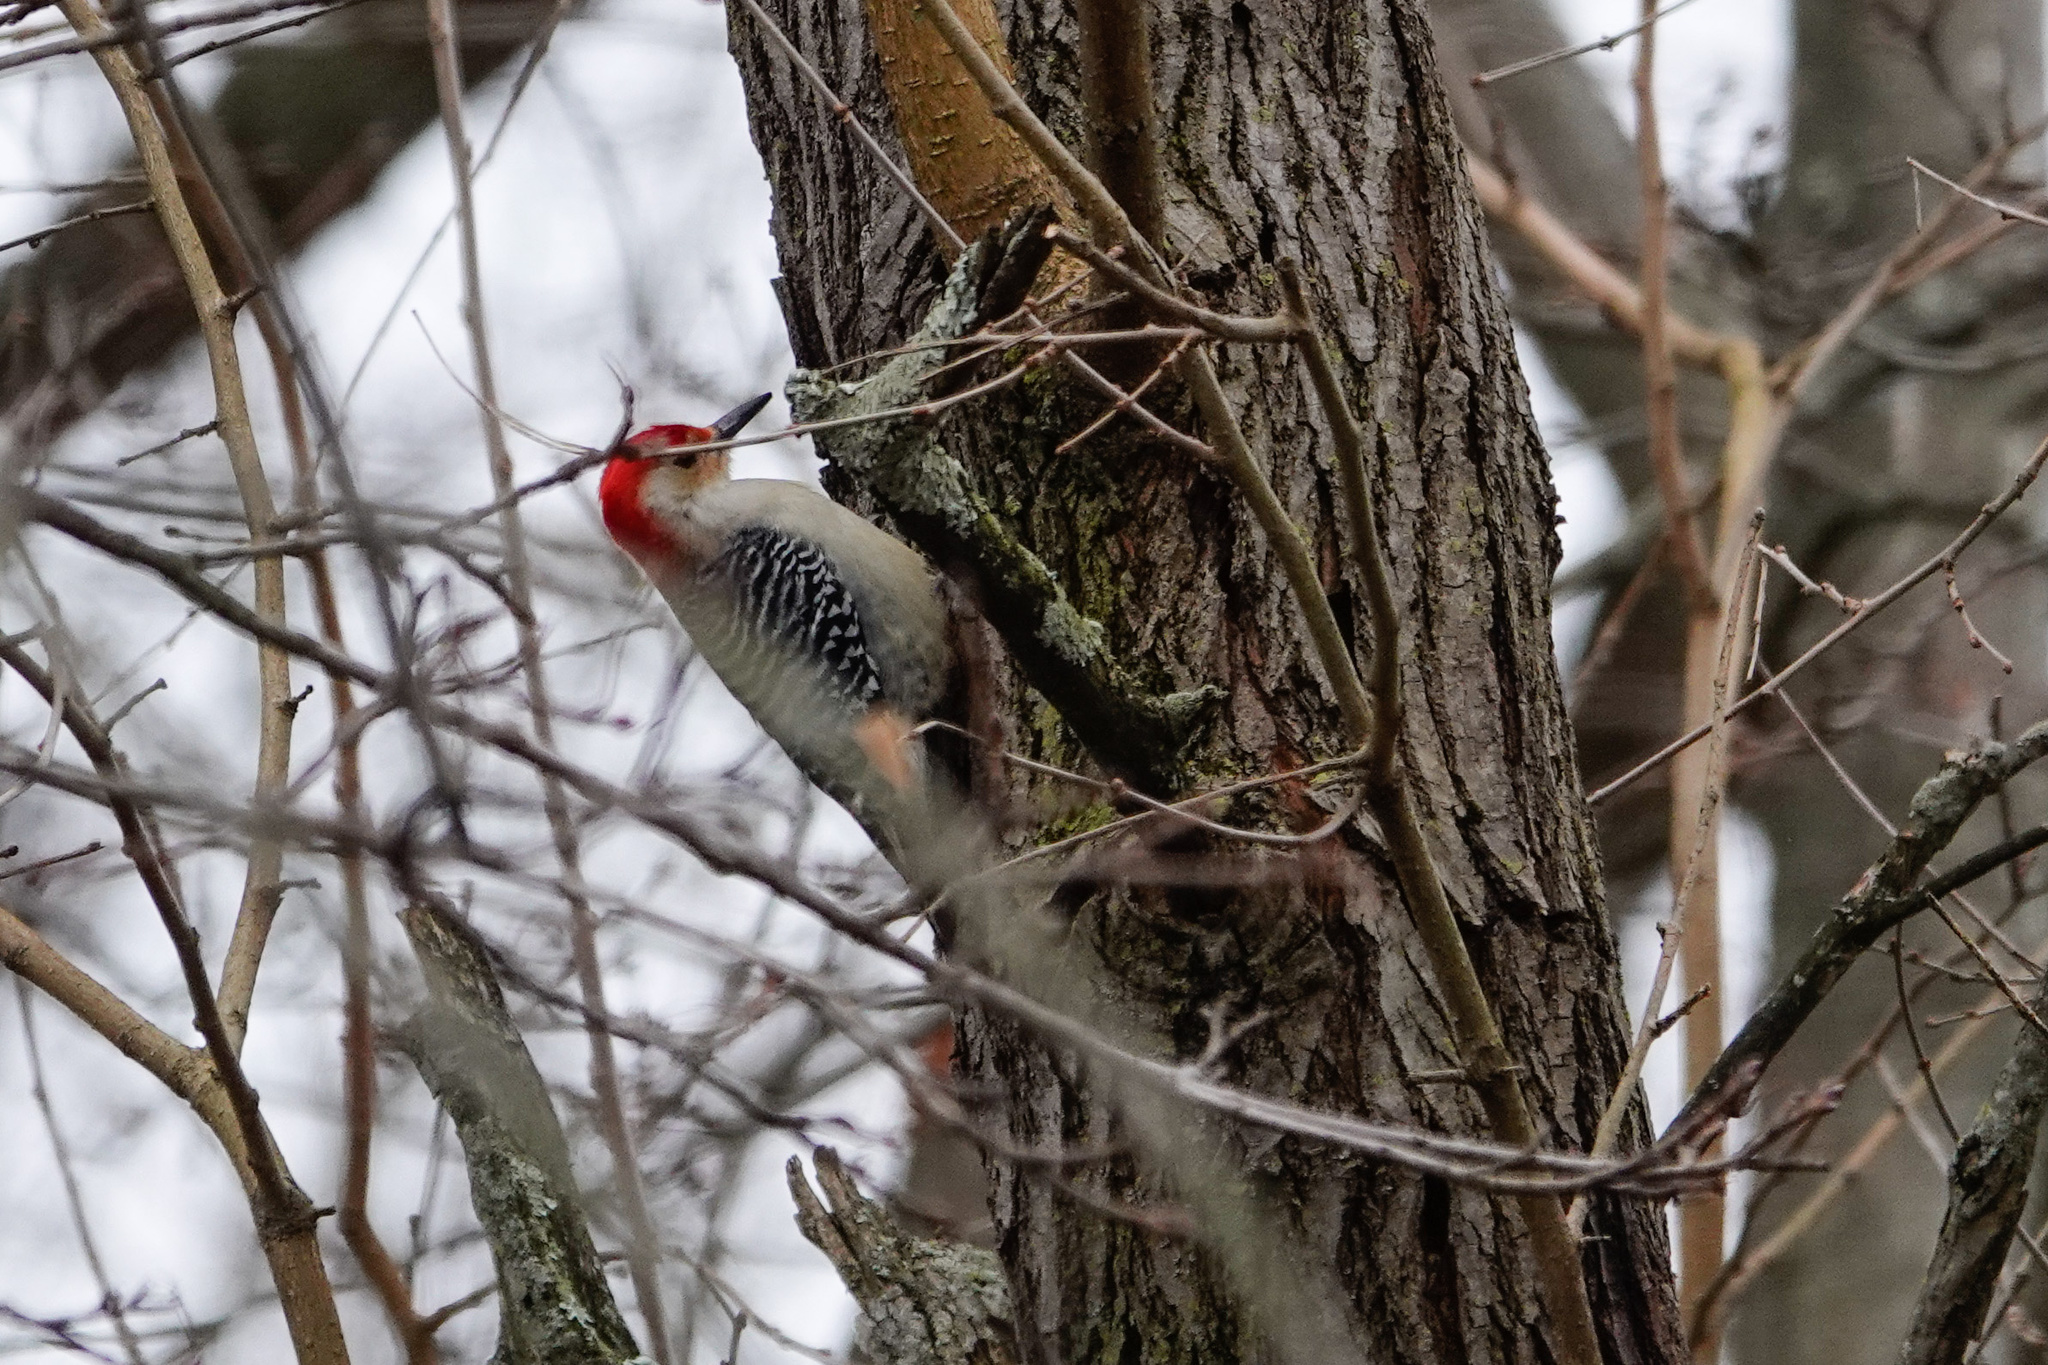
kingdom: Animalia
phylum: Chordata
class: Aves
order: Piciformes
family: Picidae
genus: Melanerpes
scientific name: Melanerpes carolinus
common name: Red-bellied woodpecker
